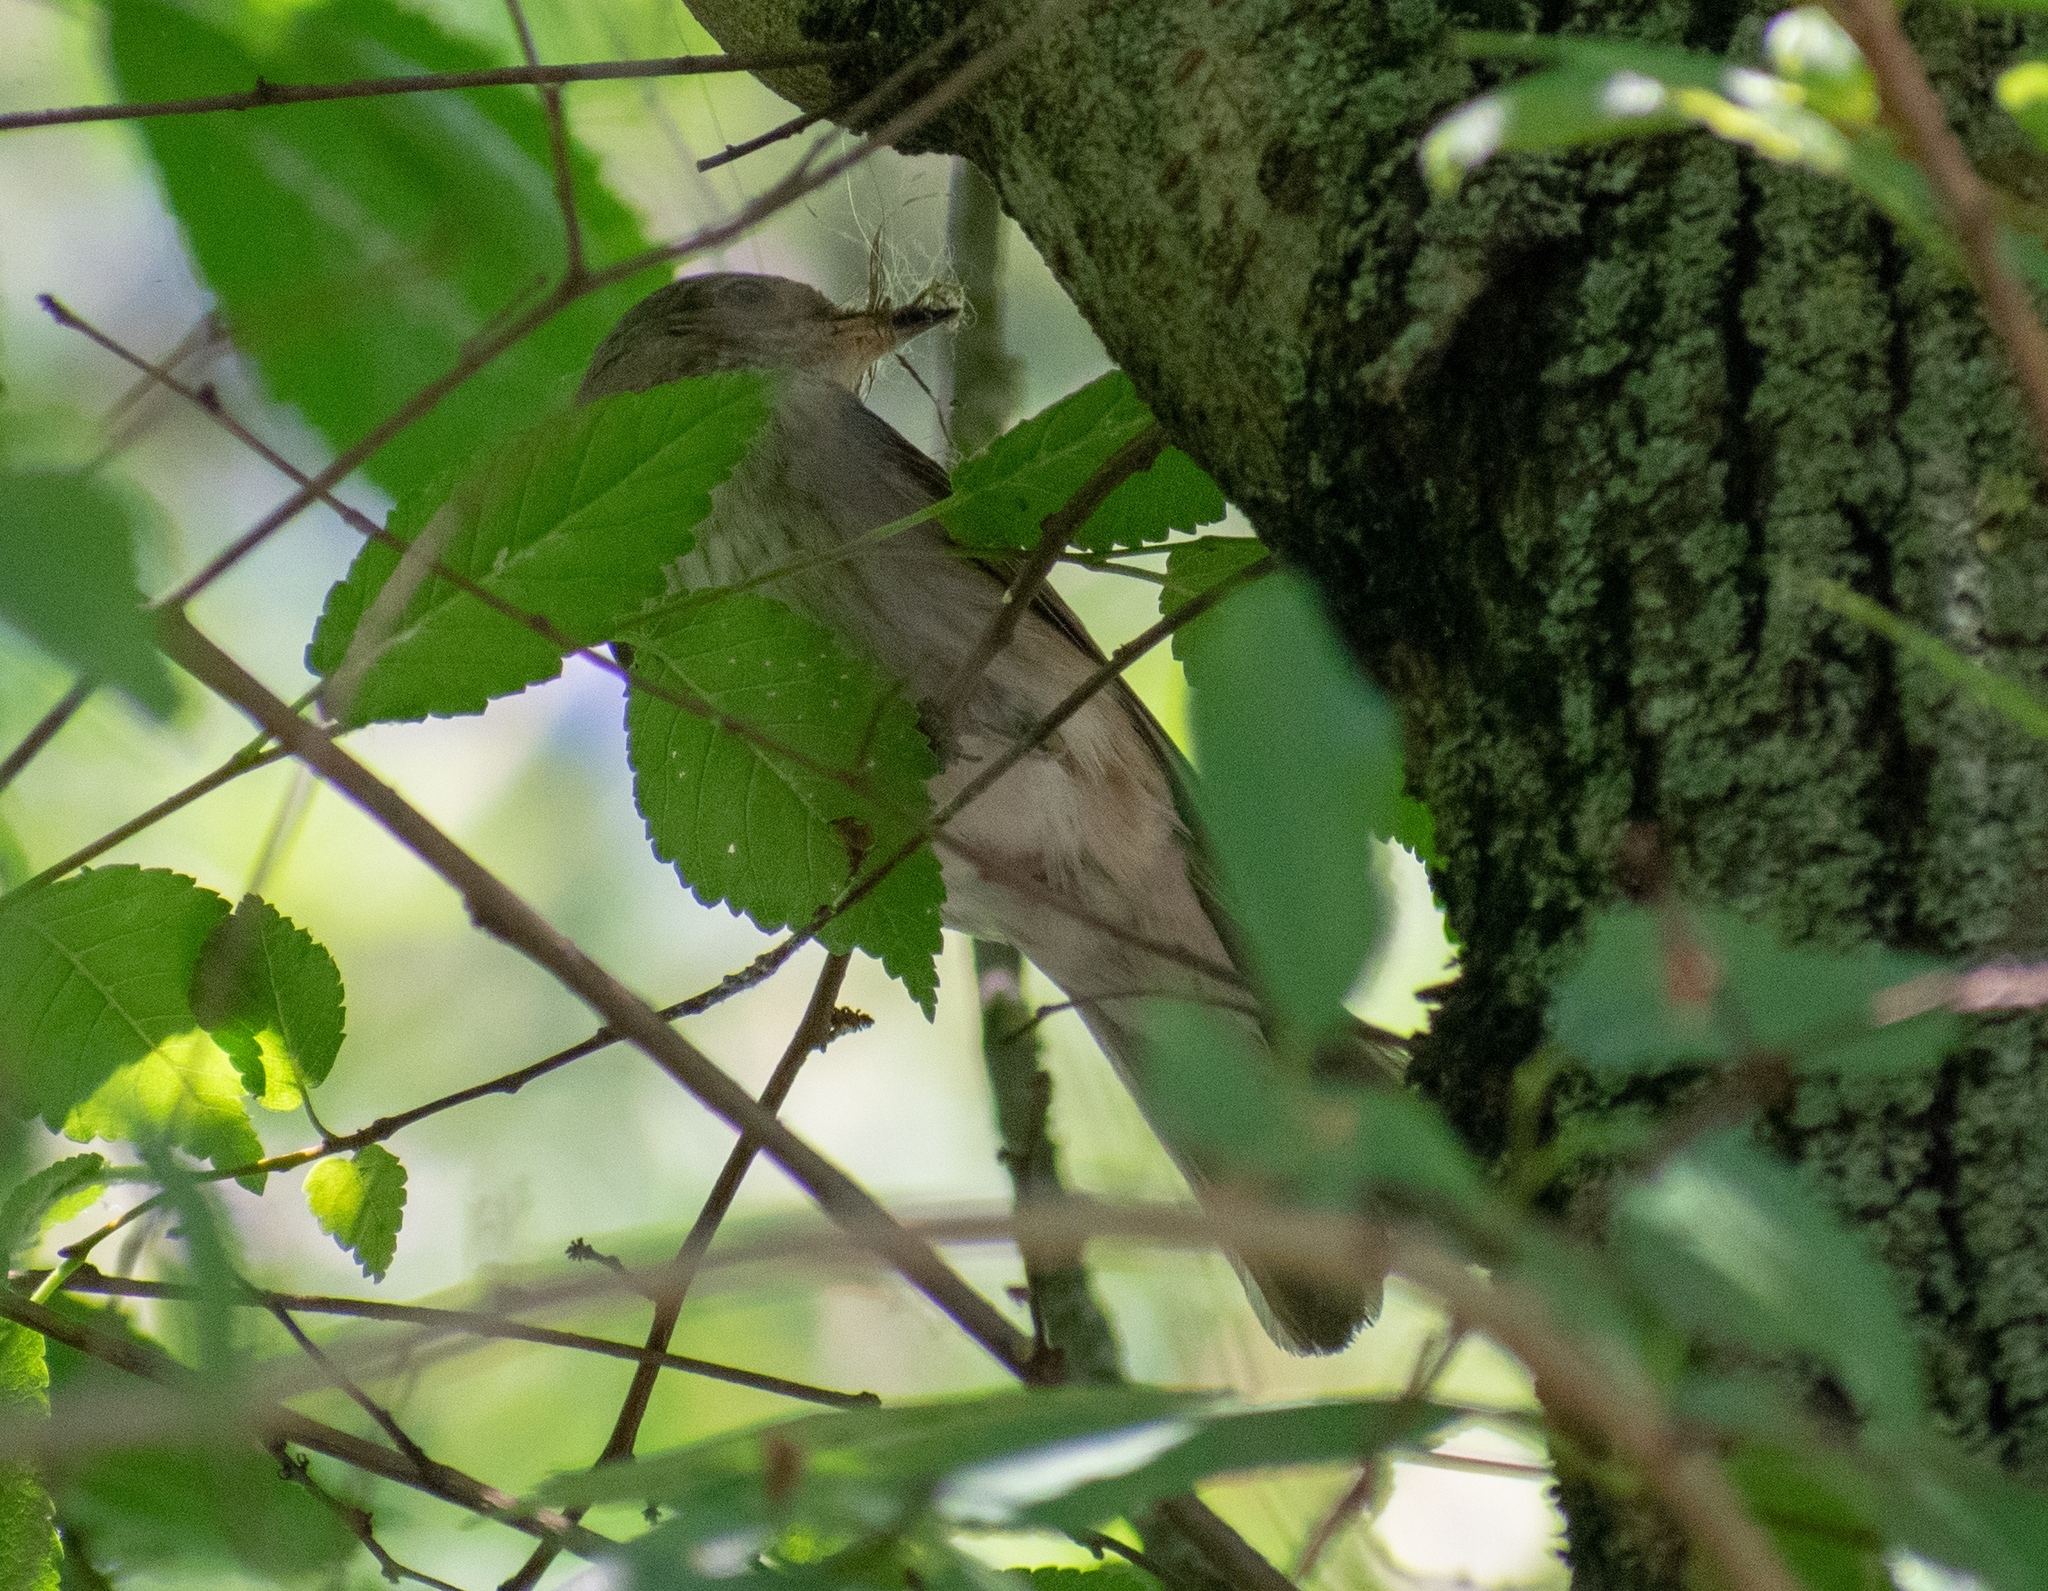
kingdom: Animalia
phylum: Chordata
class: Aves
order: Passeriformes
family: Muscicapidae
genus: Muscicapa
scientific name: Muscicapa striata
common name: Spotted flycatcher
